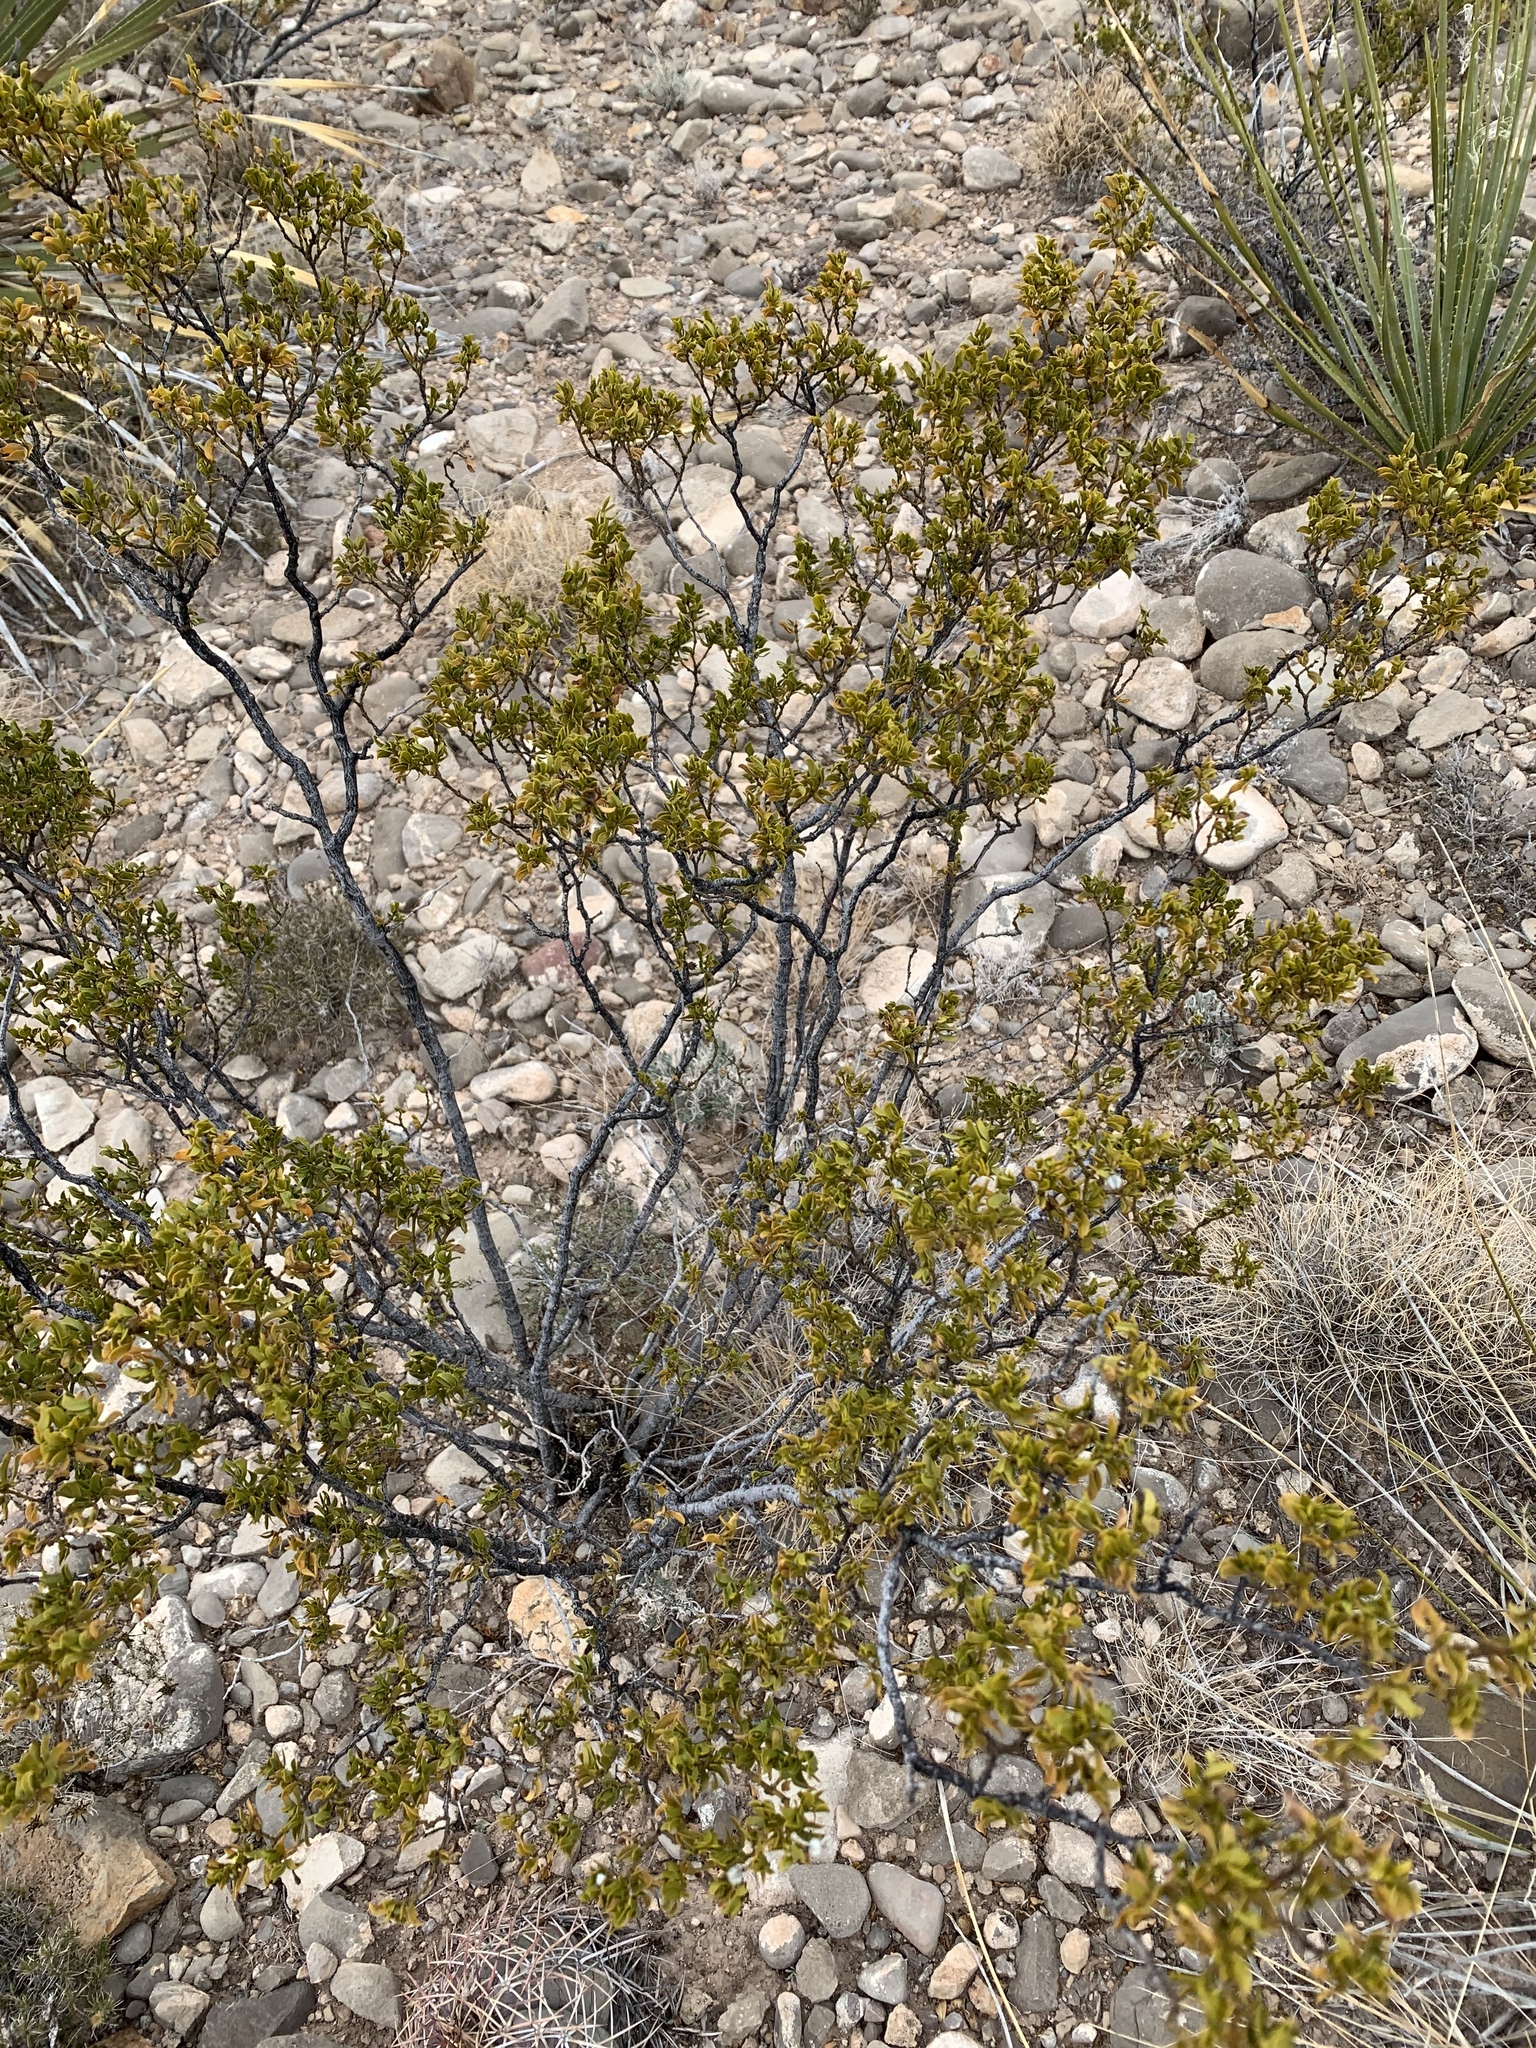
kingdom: Plantae
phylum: Tracheophyta
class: Magnoliopsida
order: Zygophyllales
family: Zygophyllaceae
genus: Larrea
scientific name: Larrea tridentata
